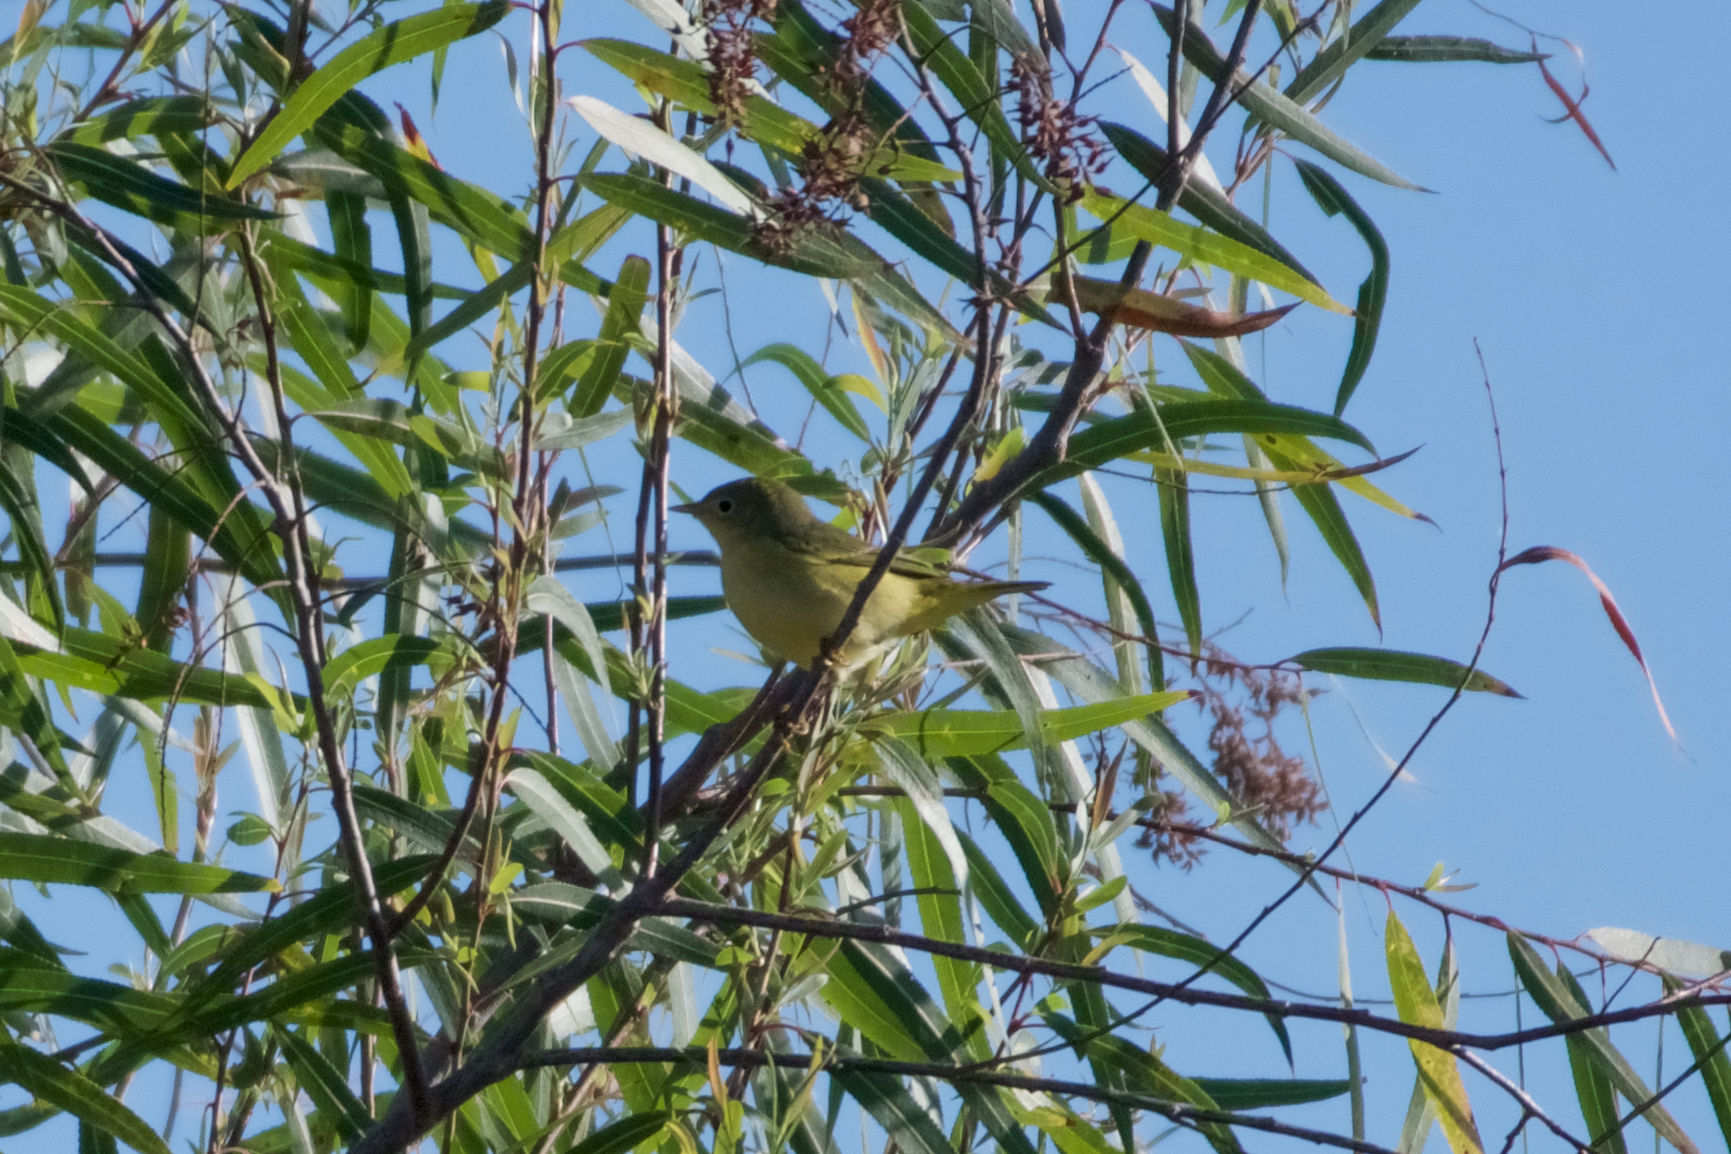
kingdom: Animalia
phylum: Chordata
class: Aves
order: Passeriformes
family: Parulidae
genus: Setophaga
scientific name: Setophaga petechia
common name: Yellow warbler
